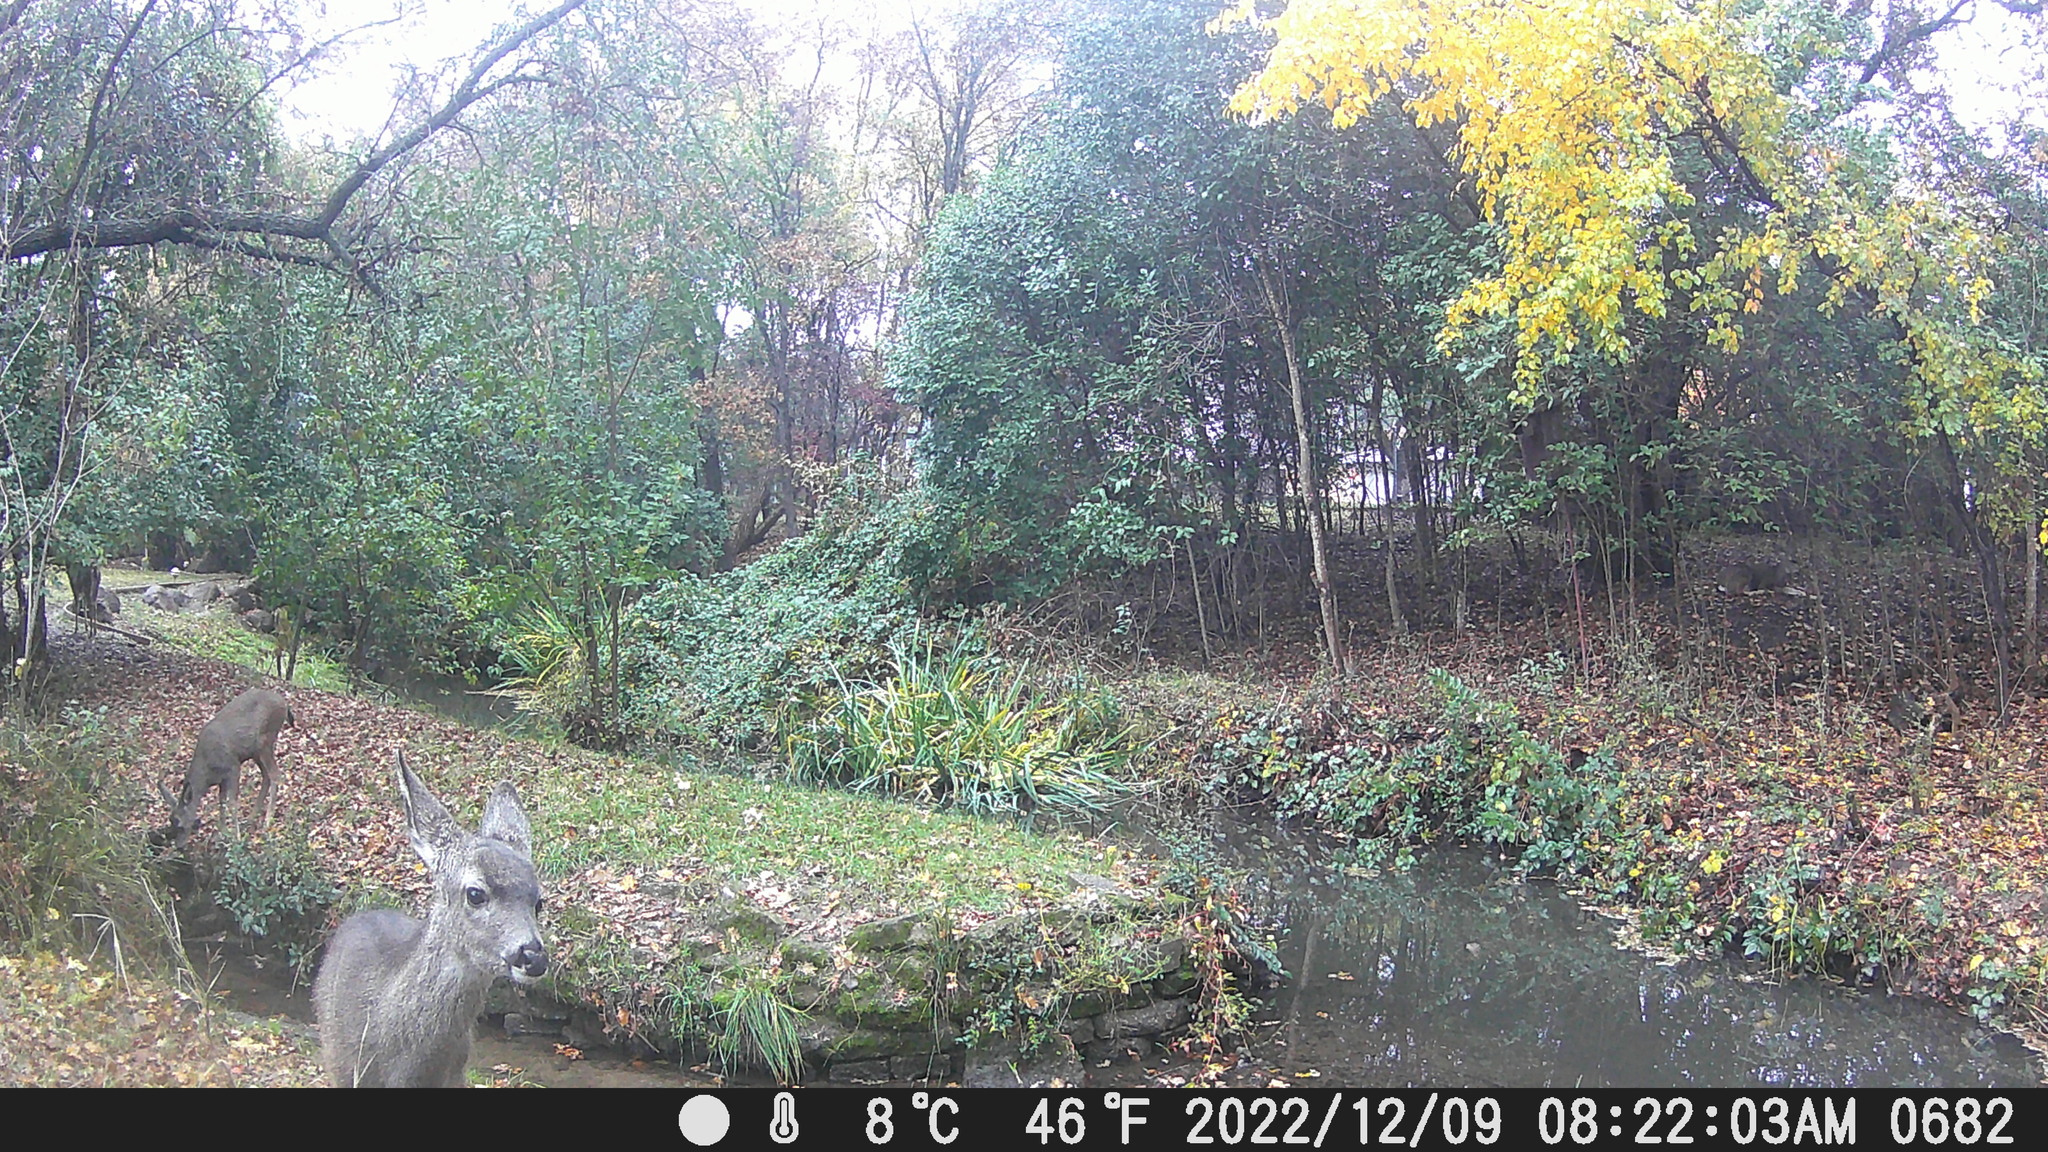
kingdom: Animalia
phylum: Chordata
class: Mammalia
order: Artiodactyla
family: Cervidae
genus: Odocoileus
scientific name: Odocoileus hemionus
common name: Mule deer
